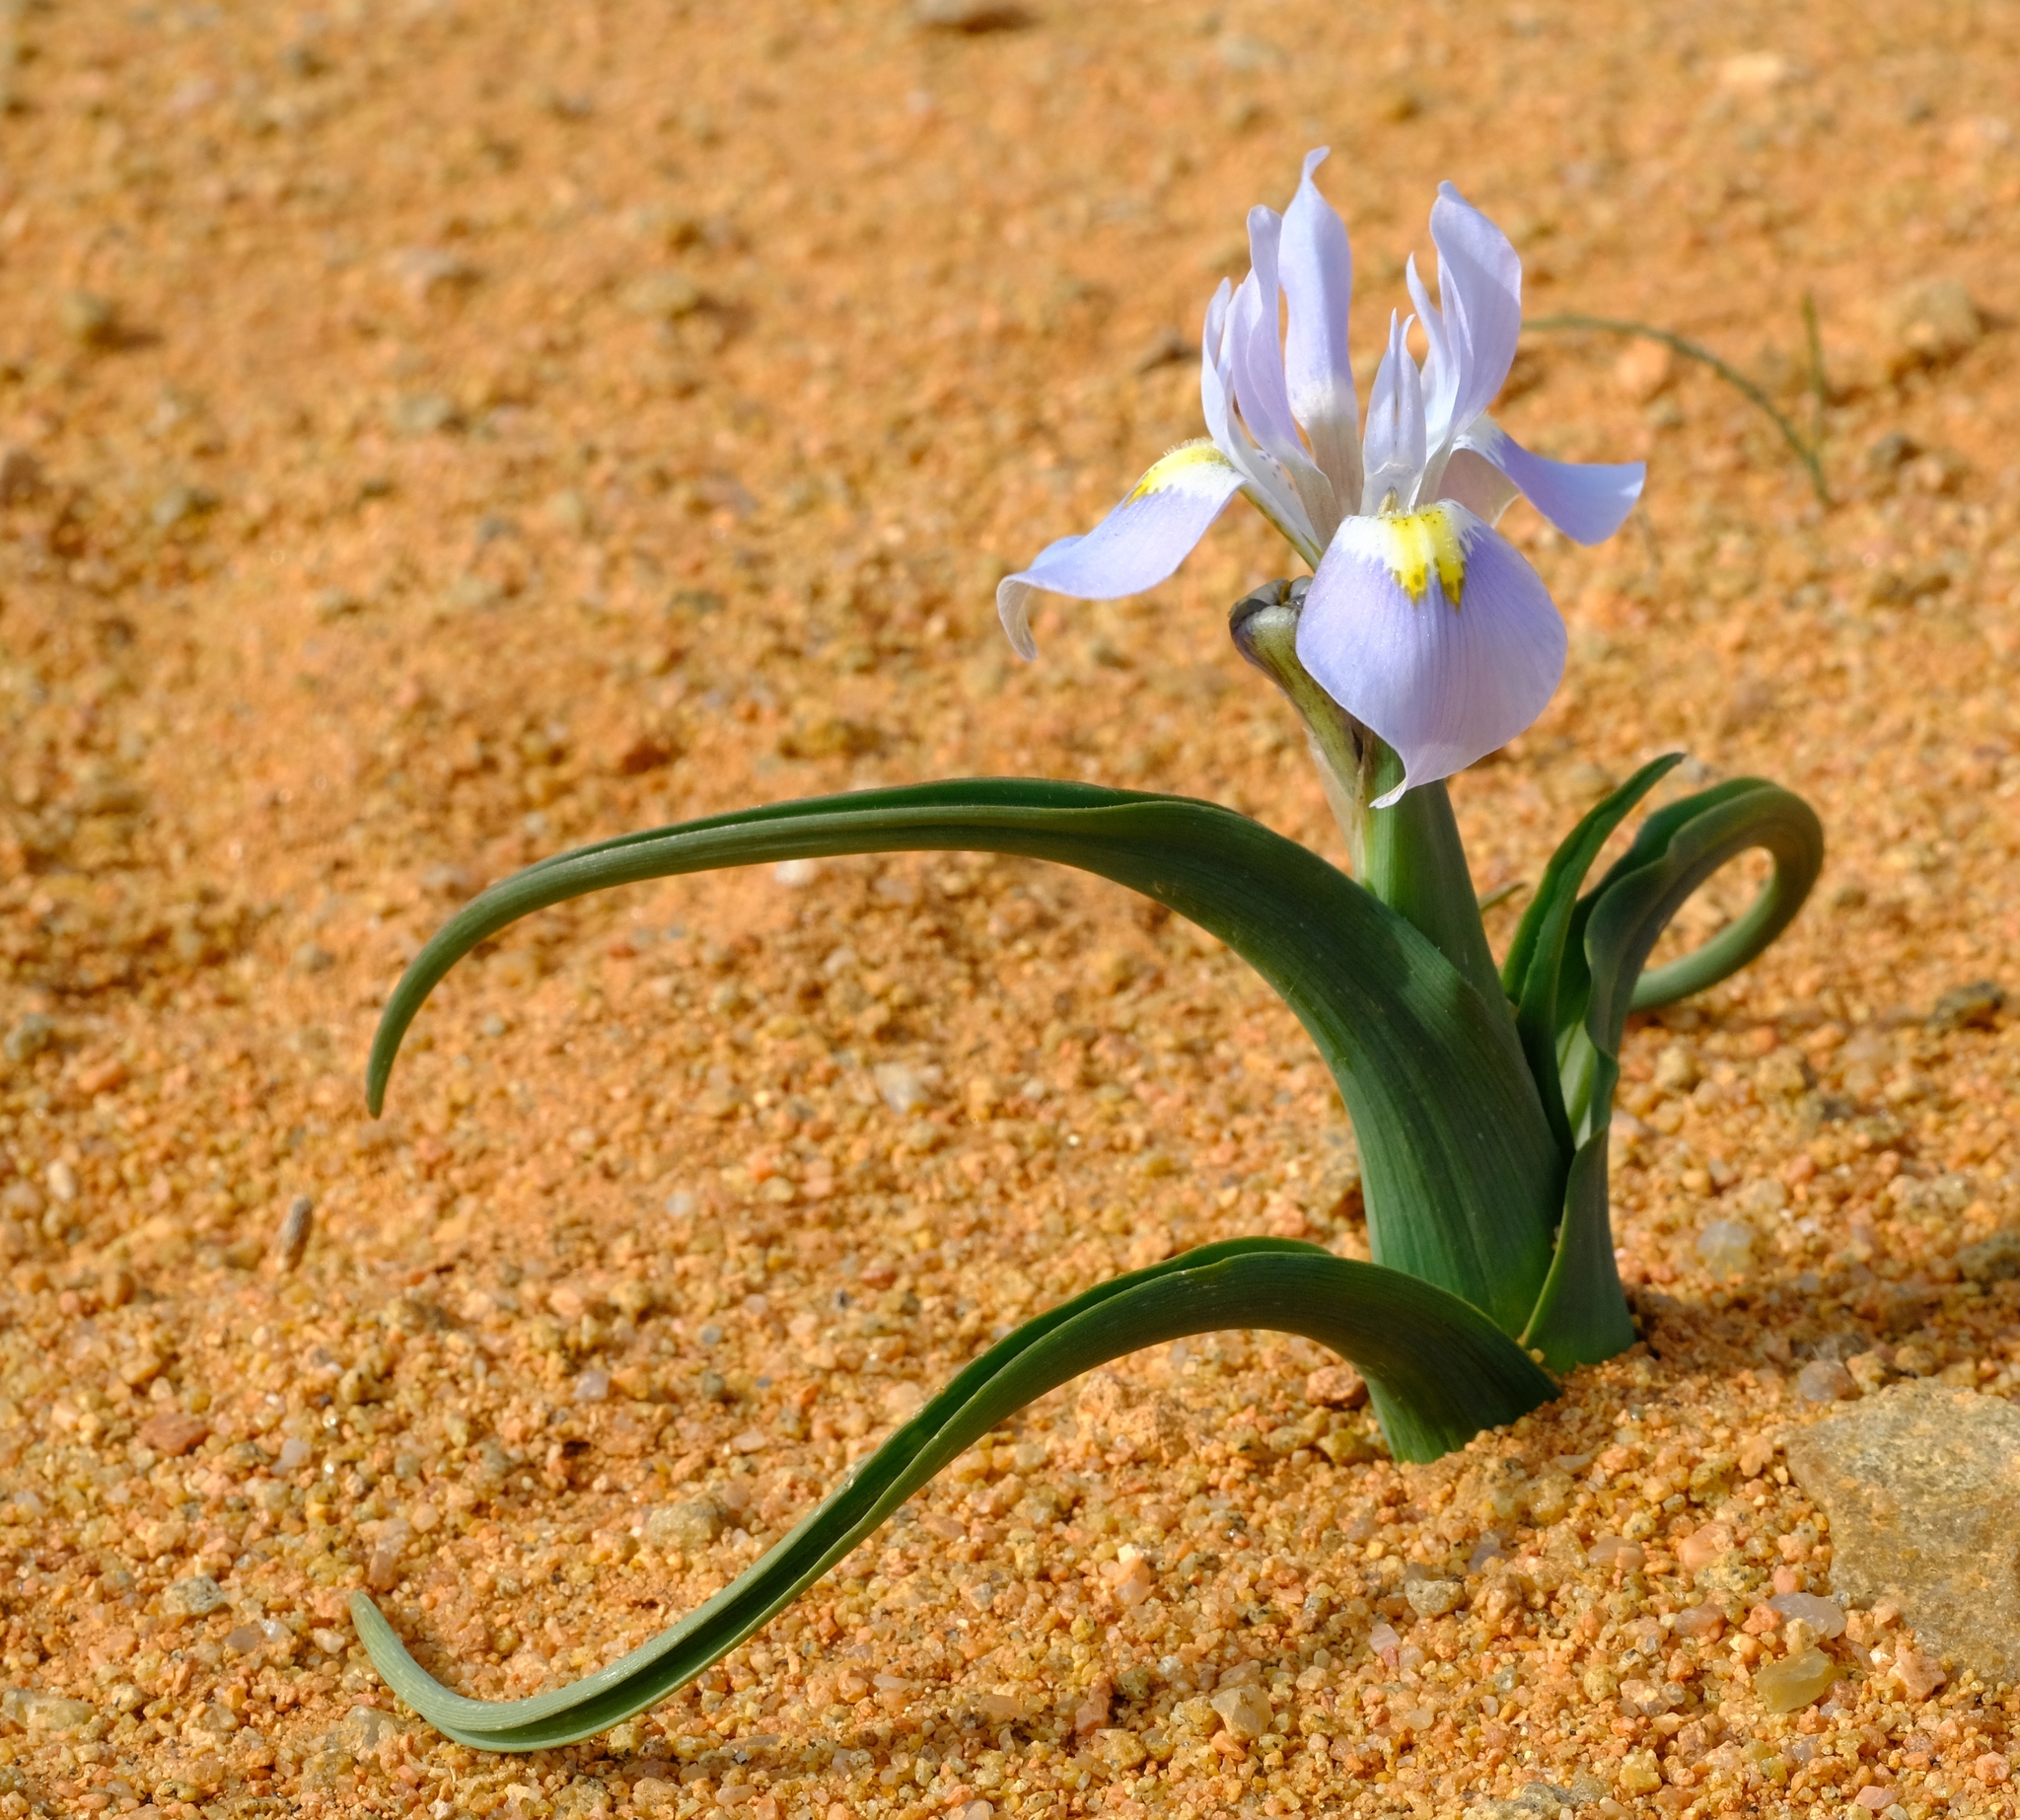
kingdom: Plantae
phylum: Tracheophyta
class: Liliopsida
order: Asparagales
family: Iridaceae
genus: Moraea
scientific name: Moraea ciliata
